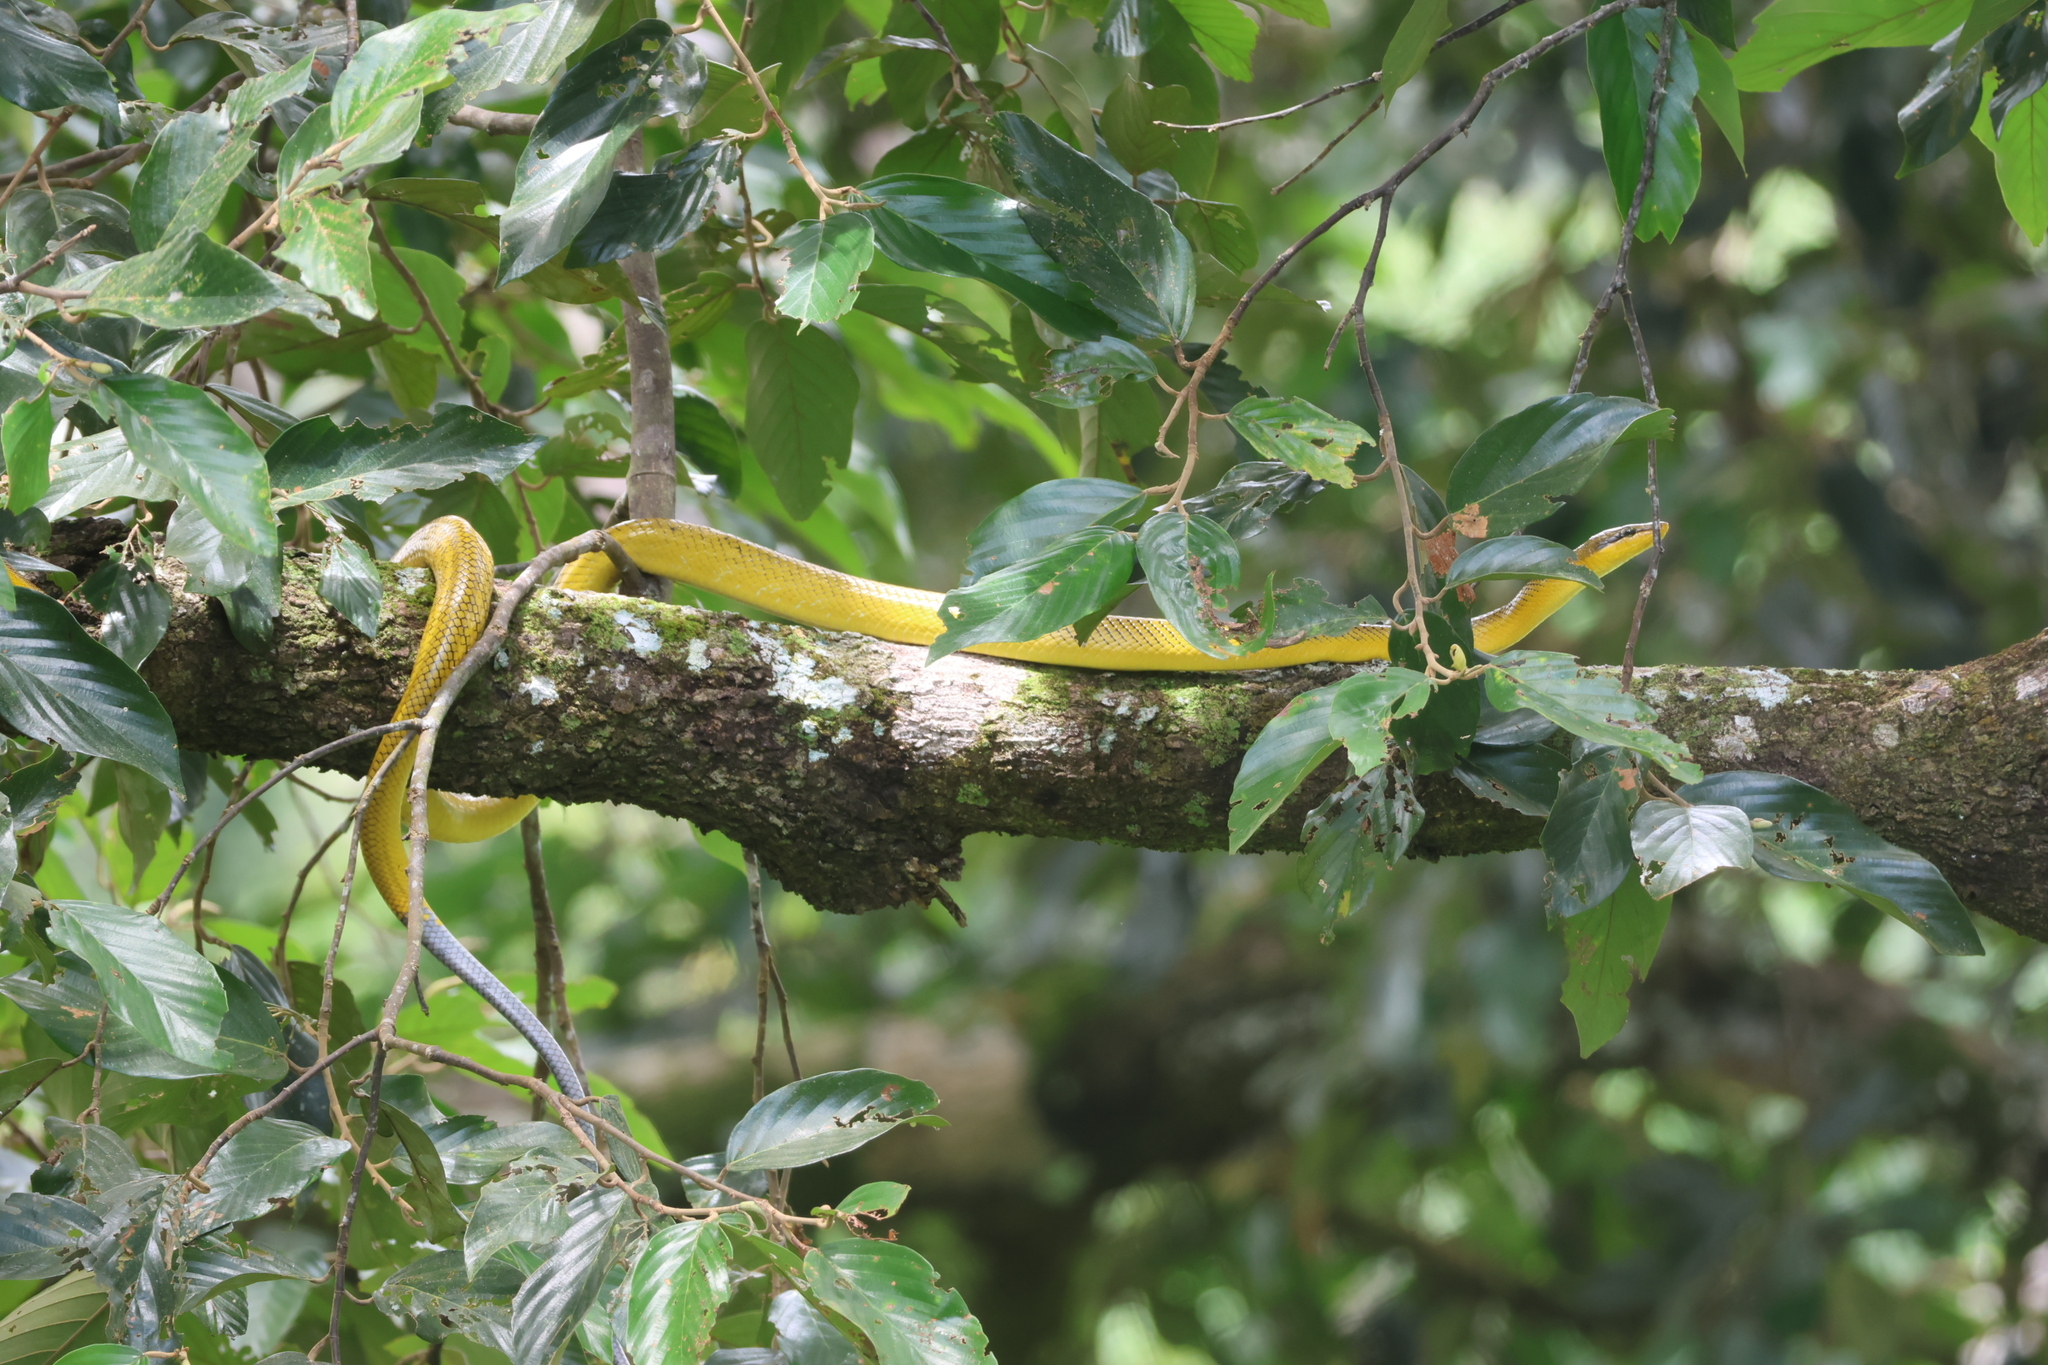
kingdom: Animalia
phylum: Chordata
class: Squamata
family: Colubridae
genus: Gonyosoma
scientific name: Gonyosoma oxycephalum
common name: Red-tailed racer
